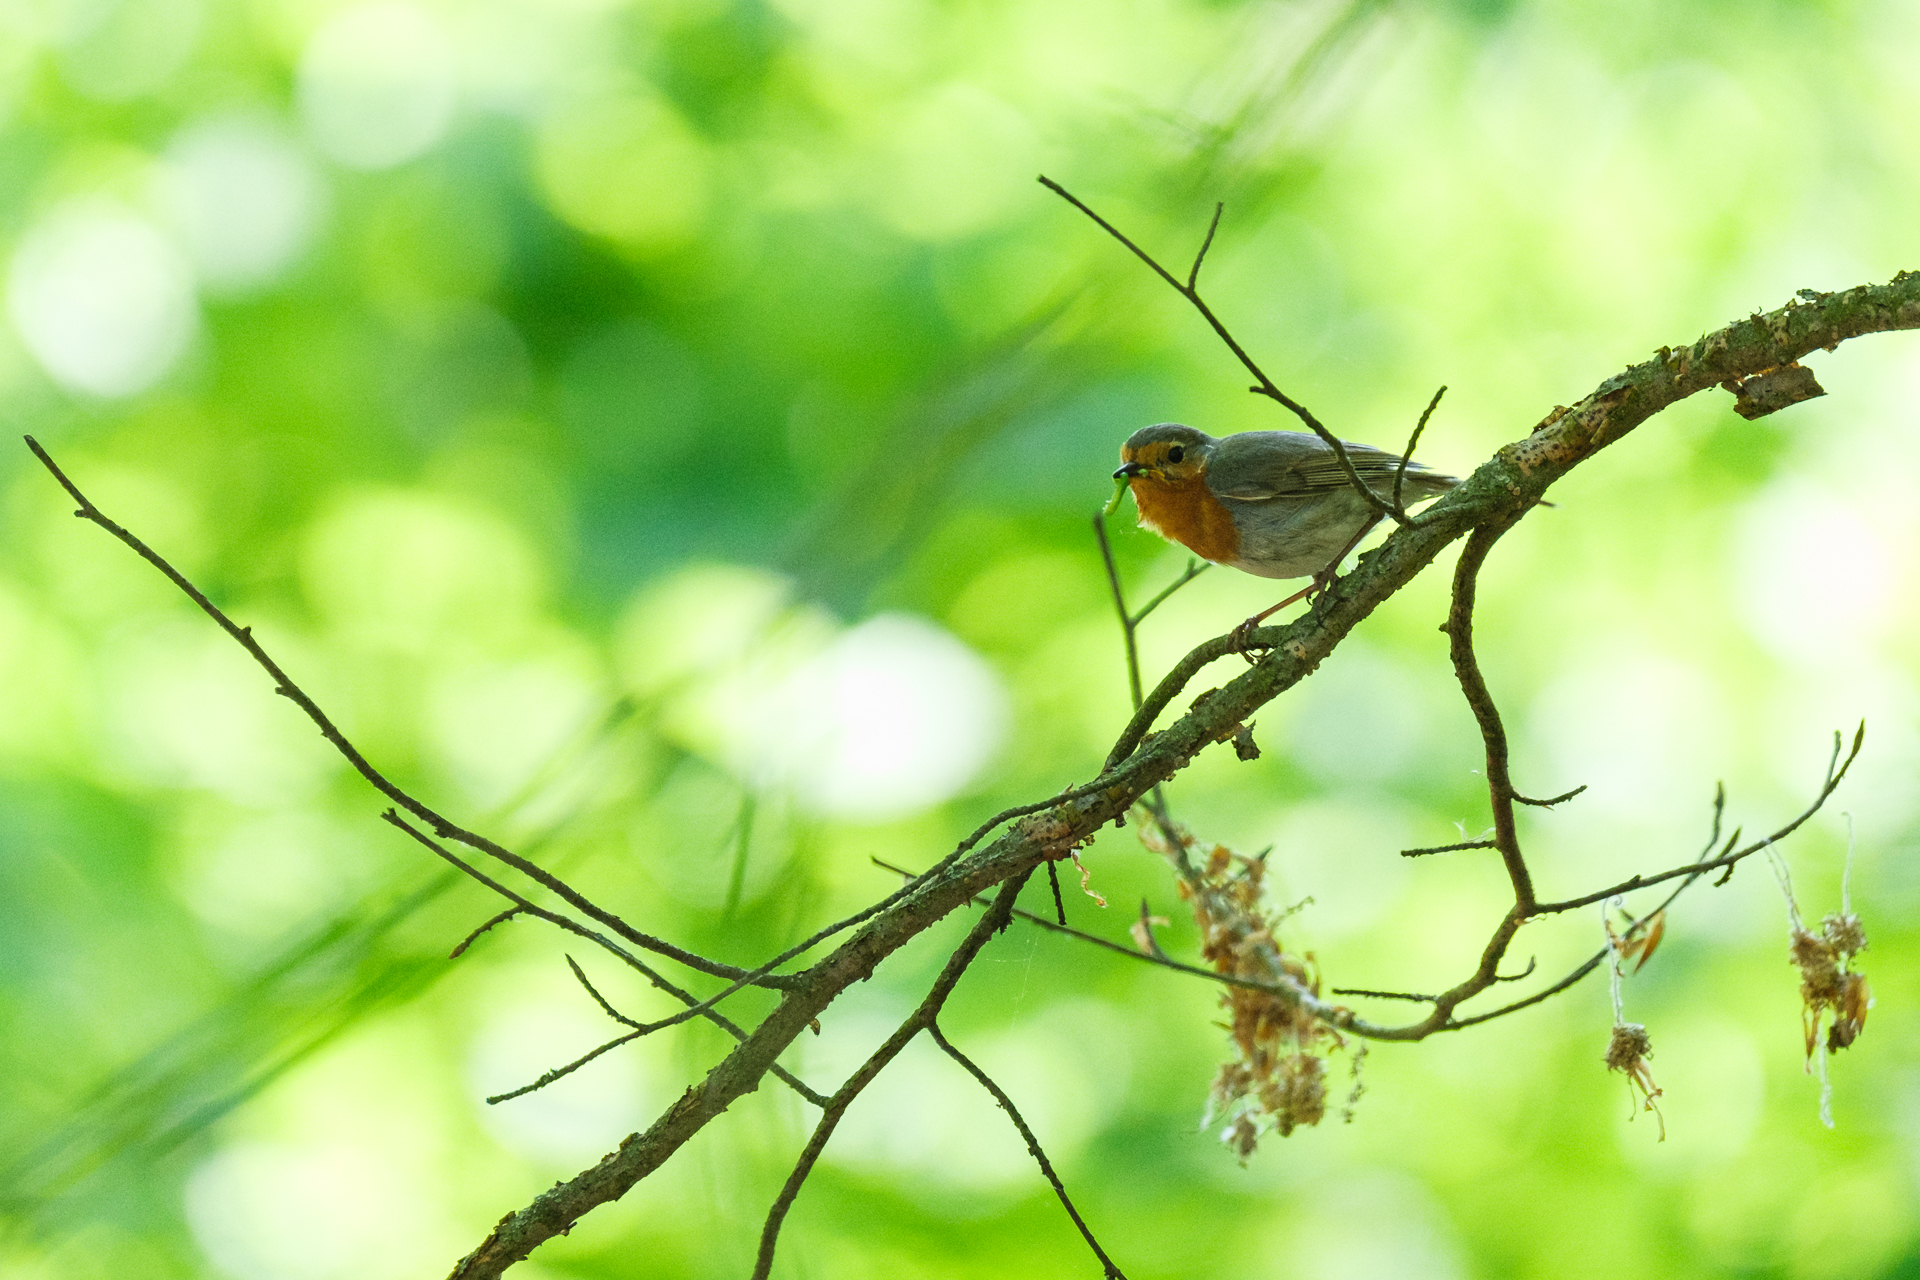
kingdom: Animalia
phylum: Chordata
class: Aves
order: Passeriformes
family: Muscicapidae
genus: Erithacus
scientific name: Erithacus rubecula
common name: European robin
